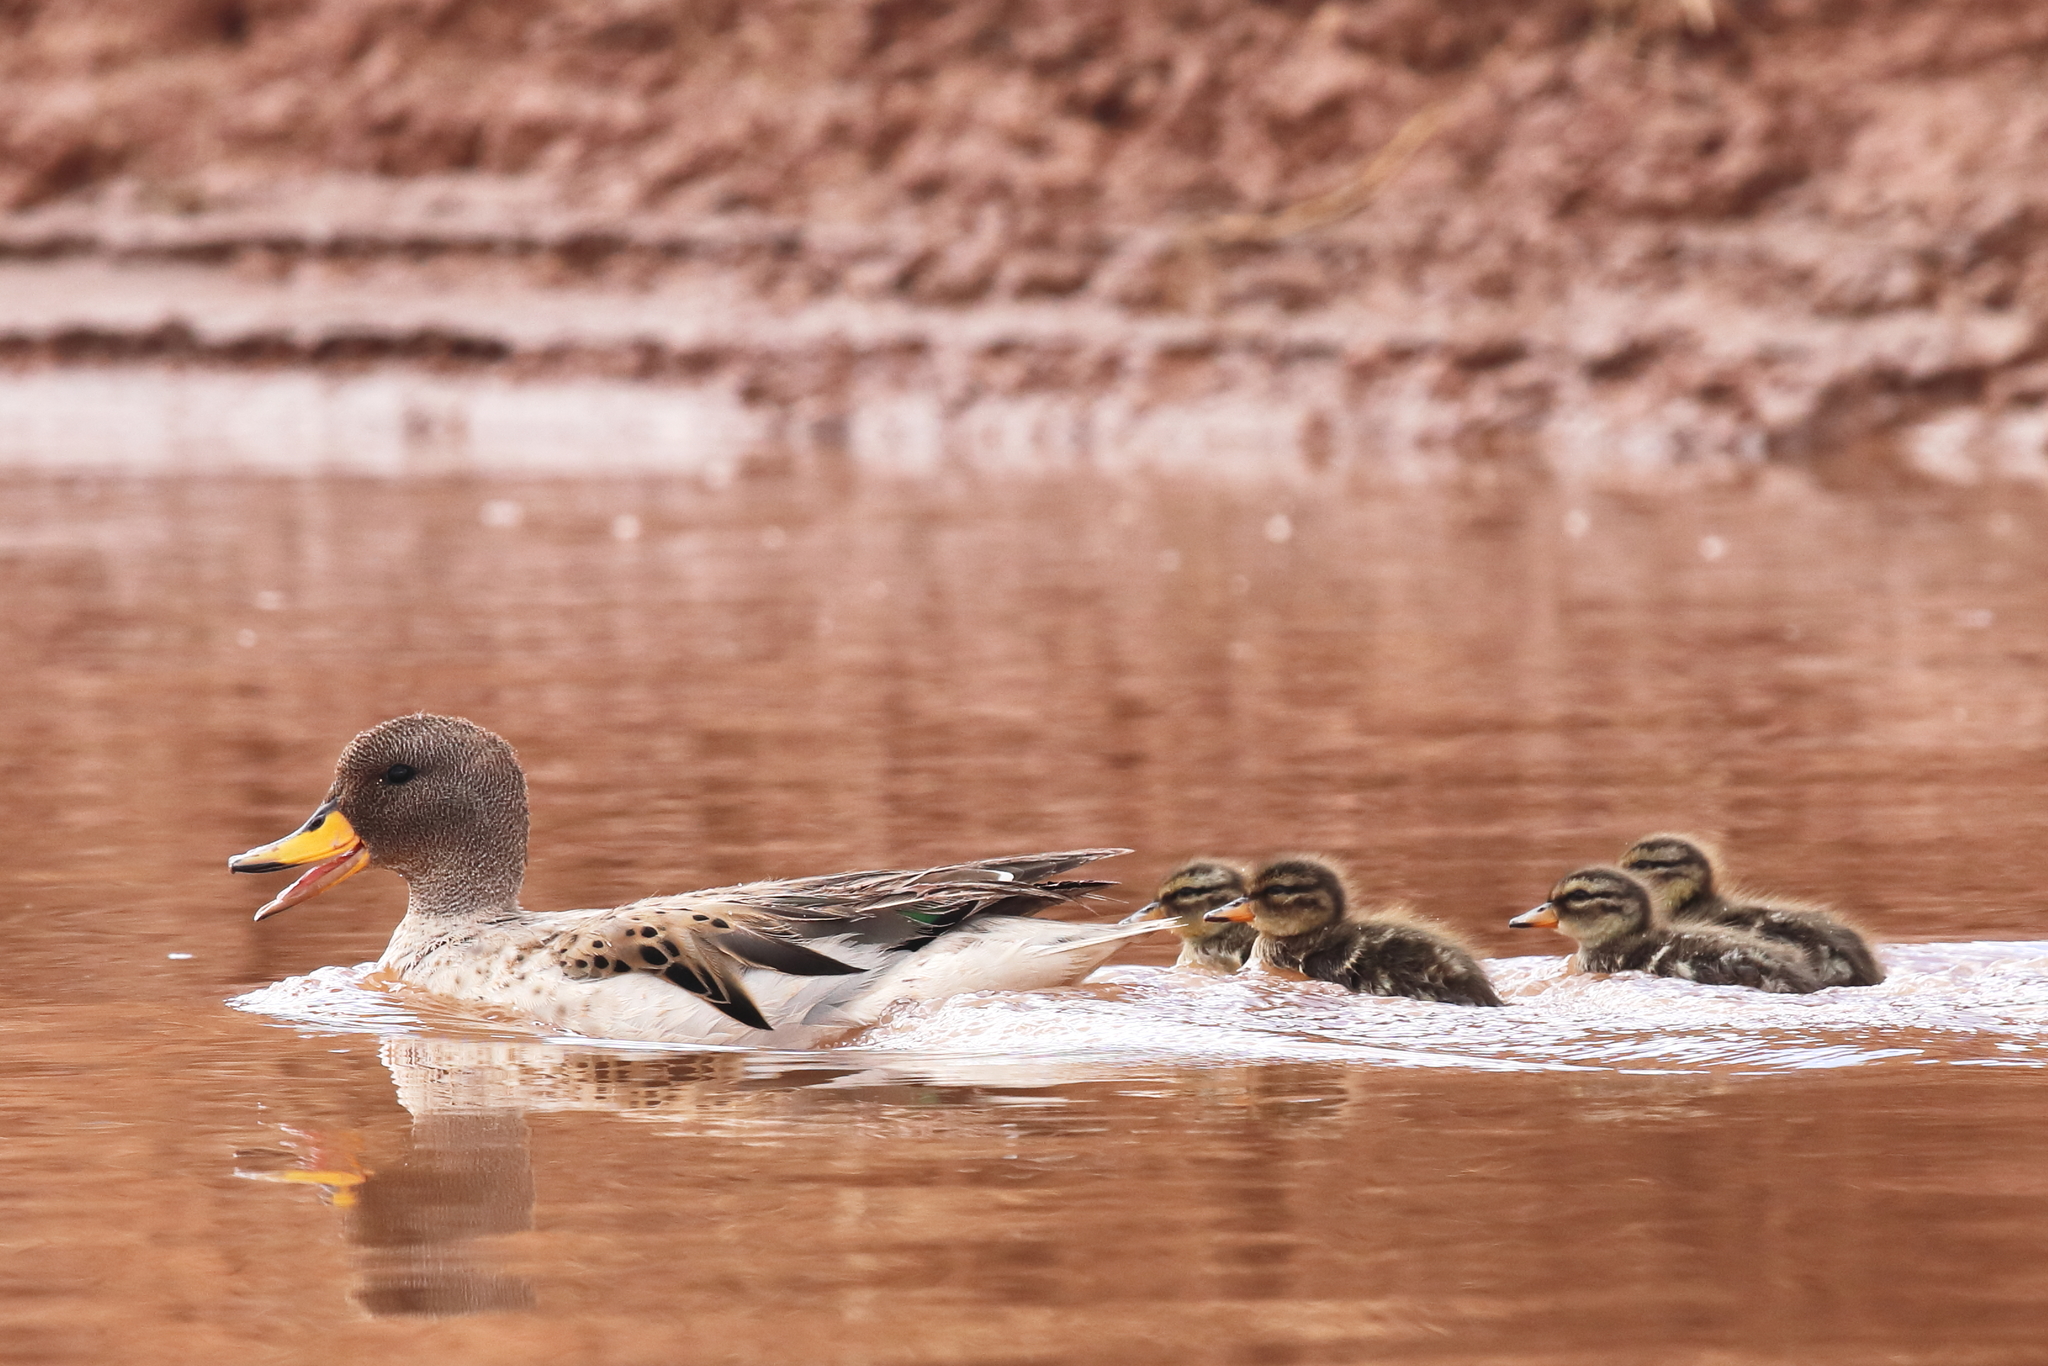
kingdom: Animalia
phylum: Chordata
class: Aves
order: Anseriformes
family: Anatidae
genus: Anas
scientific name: Anas flavirostris
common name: Yellow-billed teal
